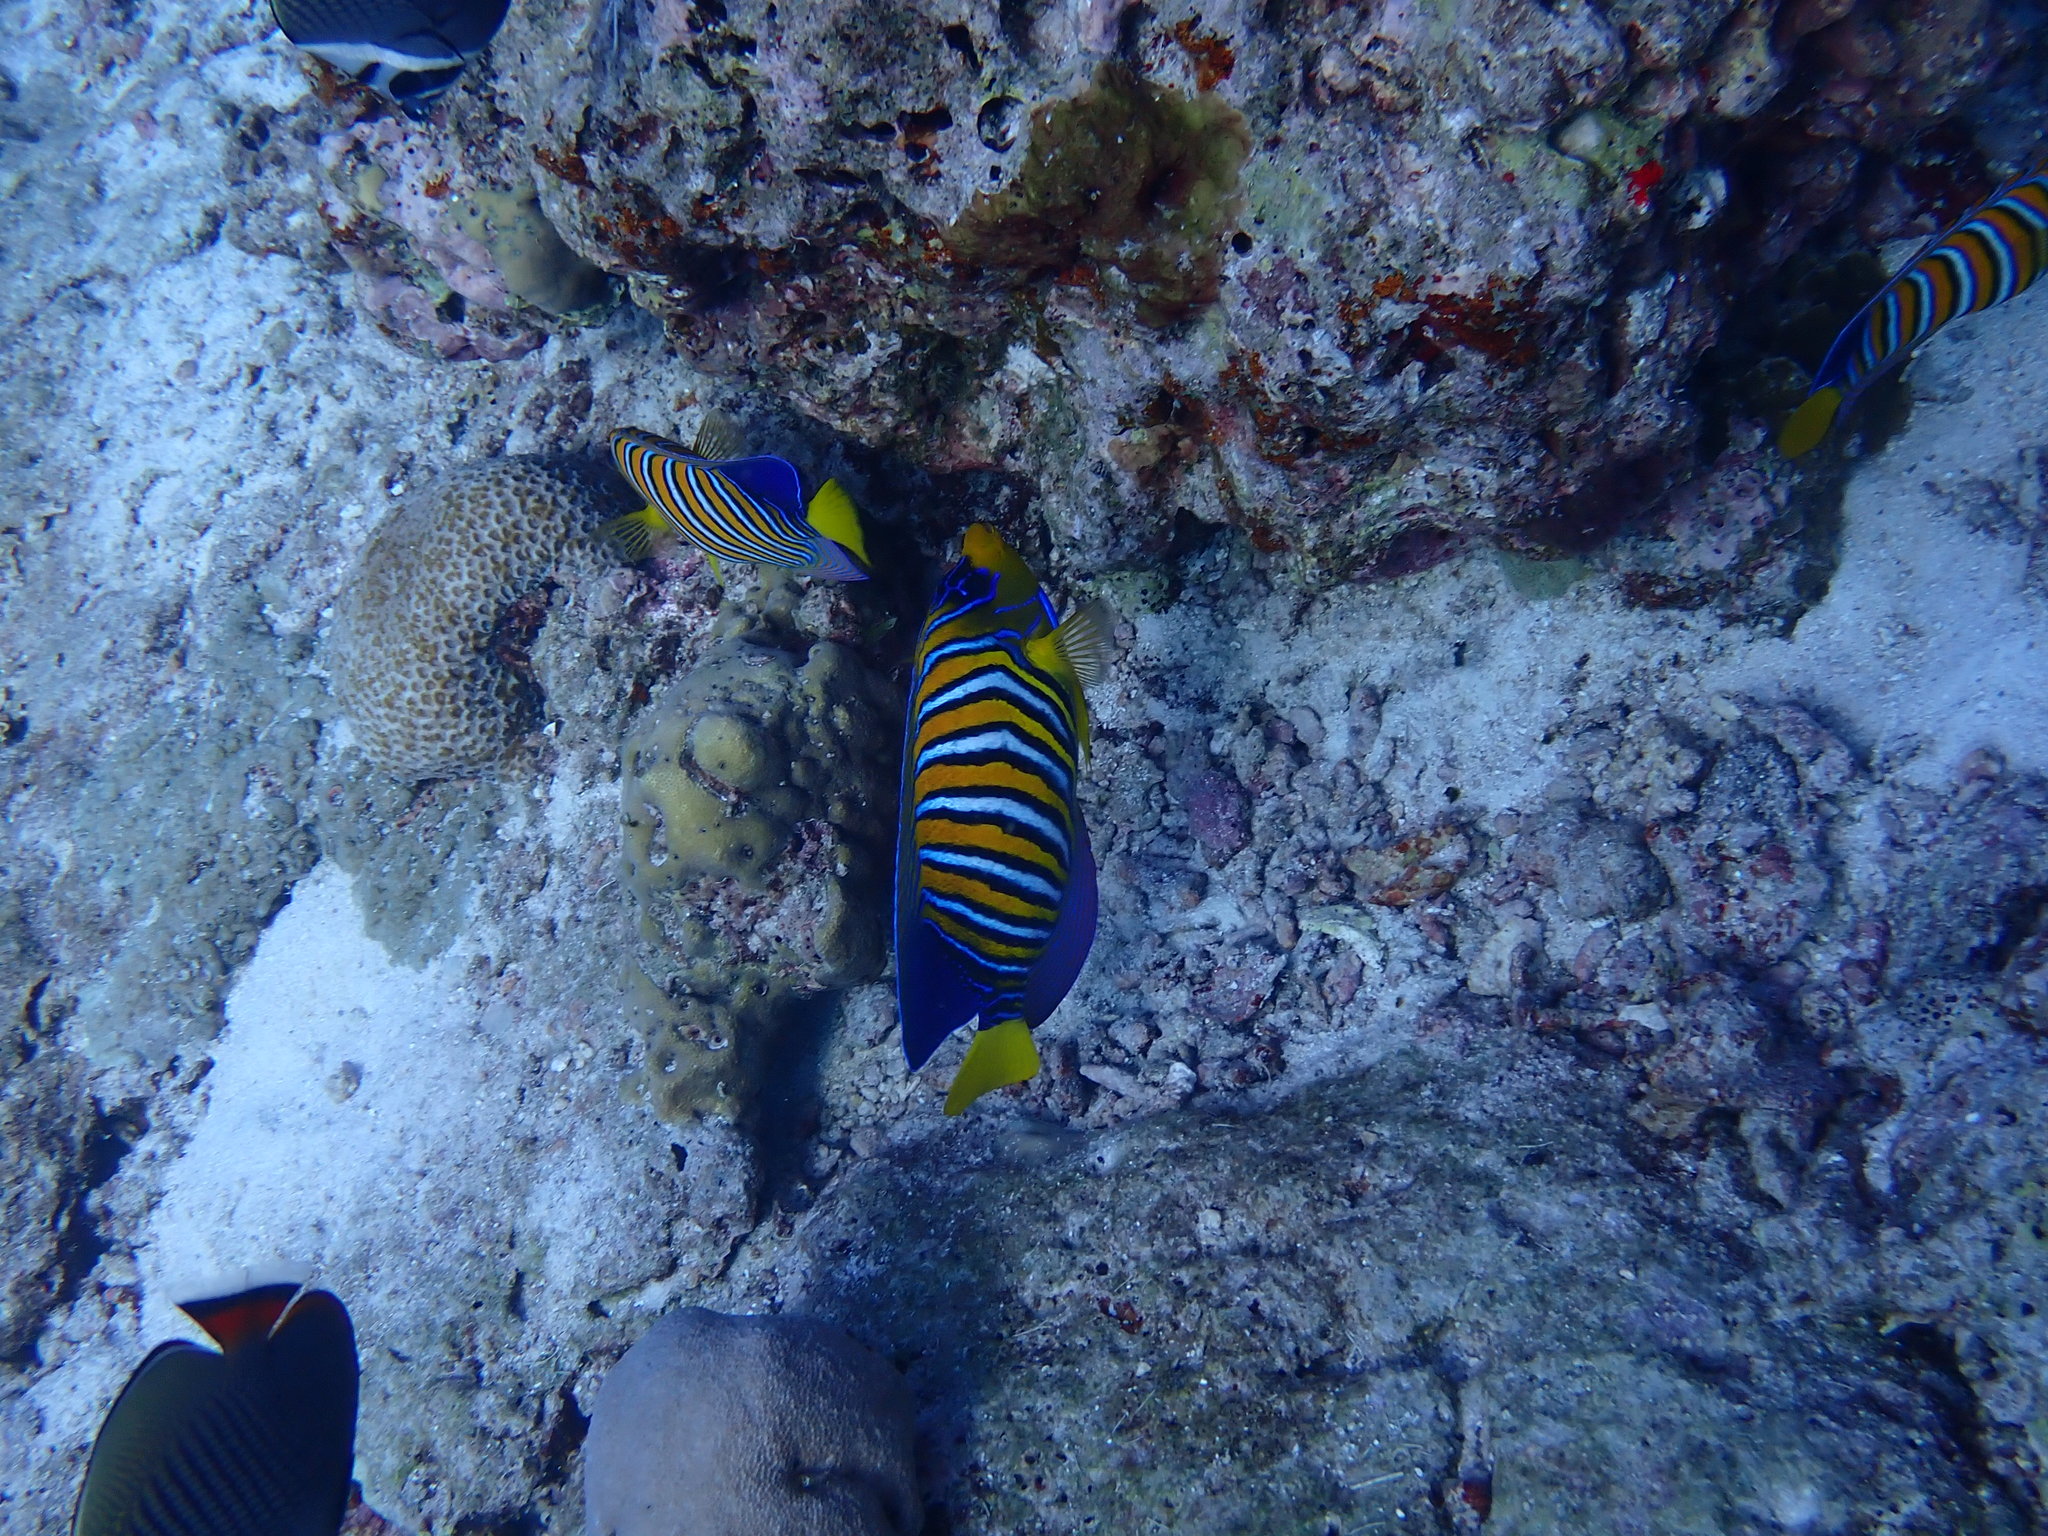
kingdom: Animalia
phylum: Chordata
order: Perciformes
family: Pomacanthidae
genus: Pygoplites
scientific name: Pygoplites diacanthus
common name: Regal angelfish
